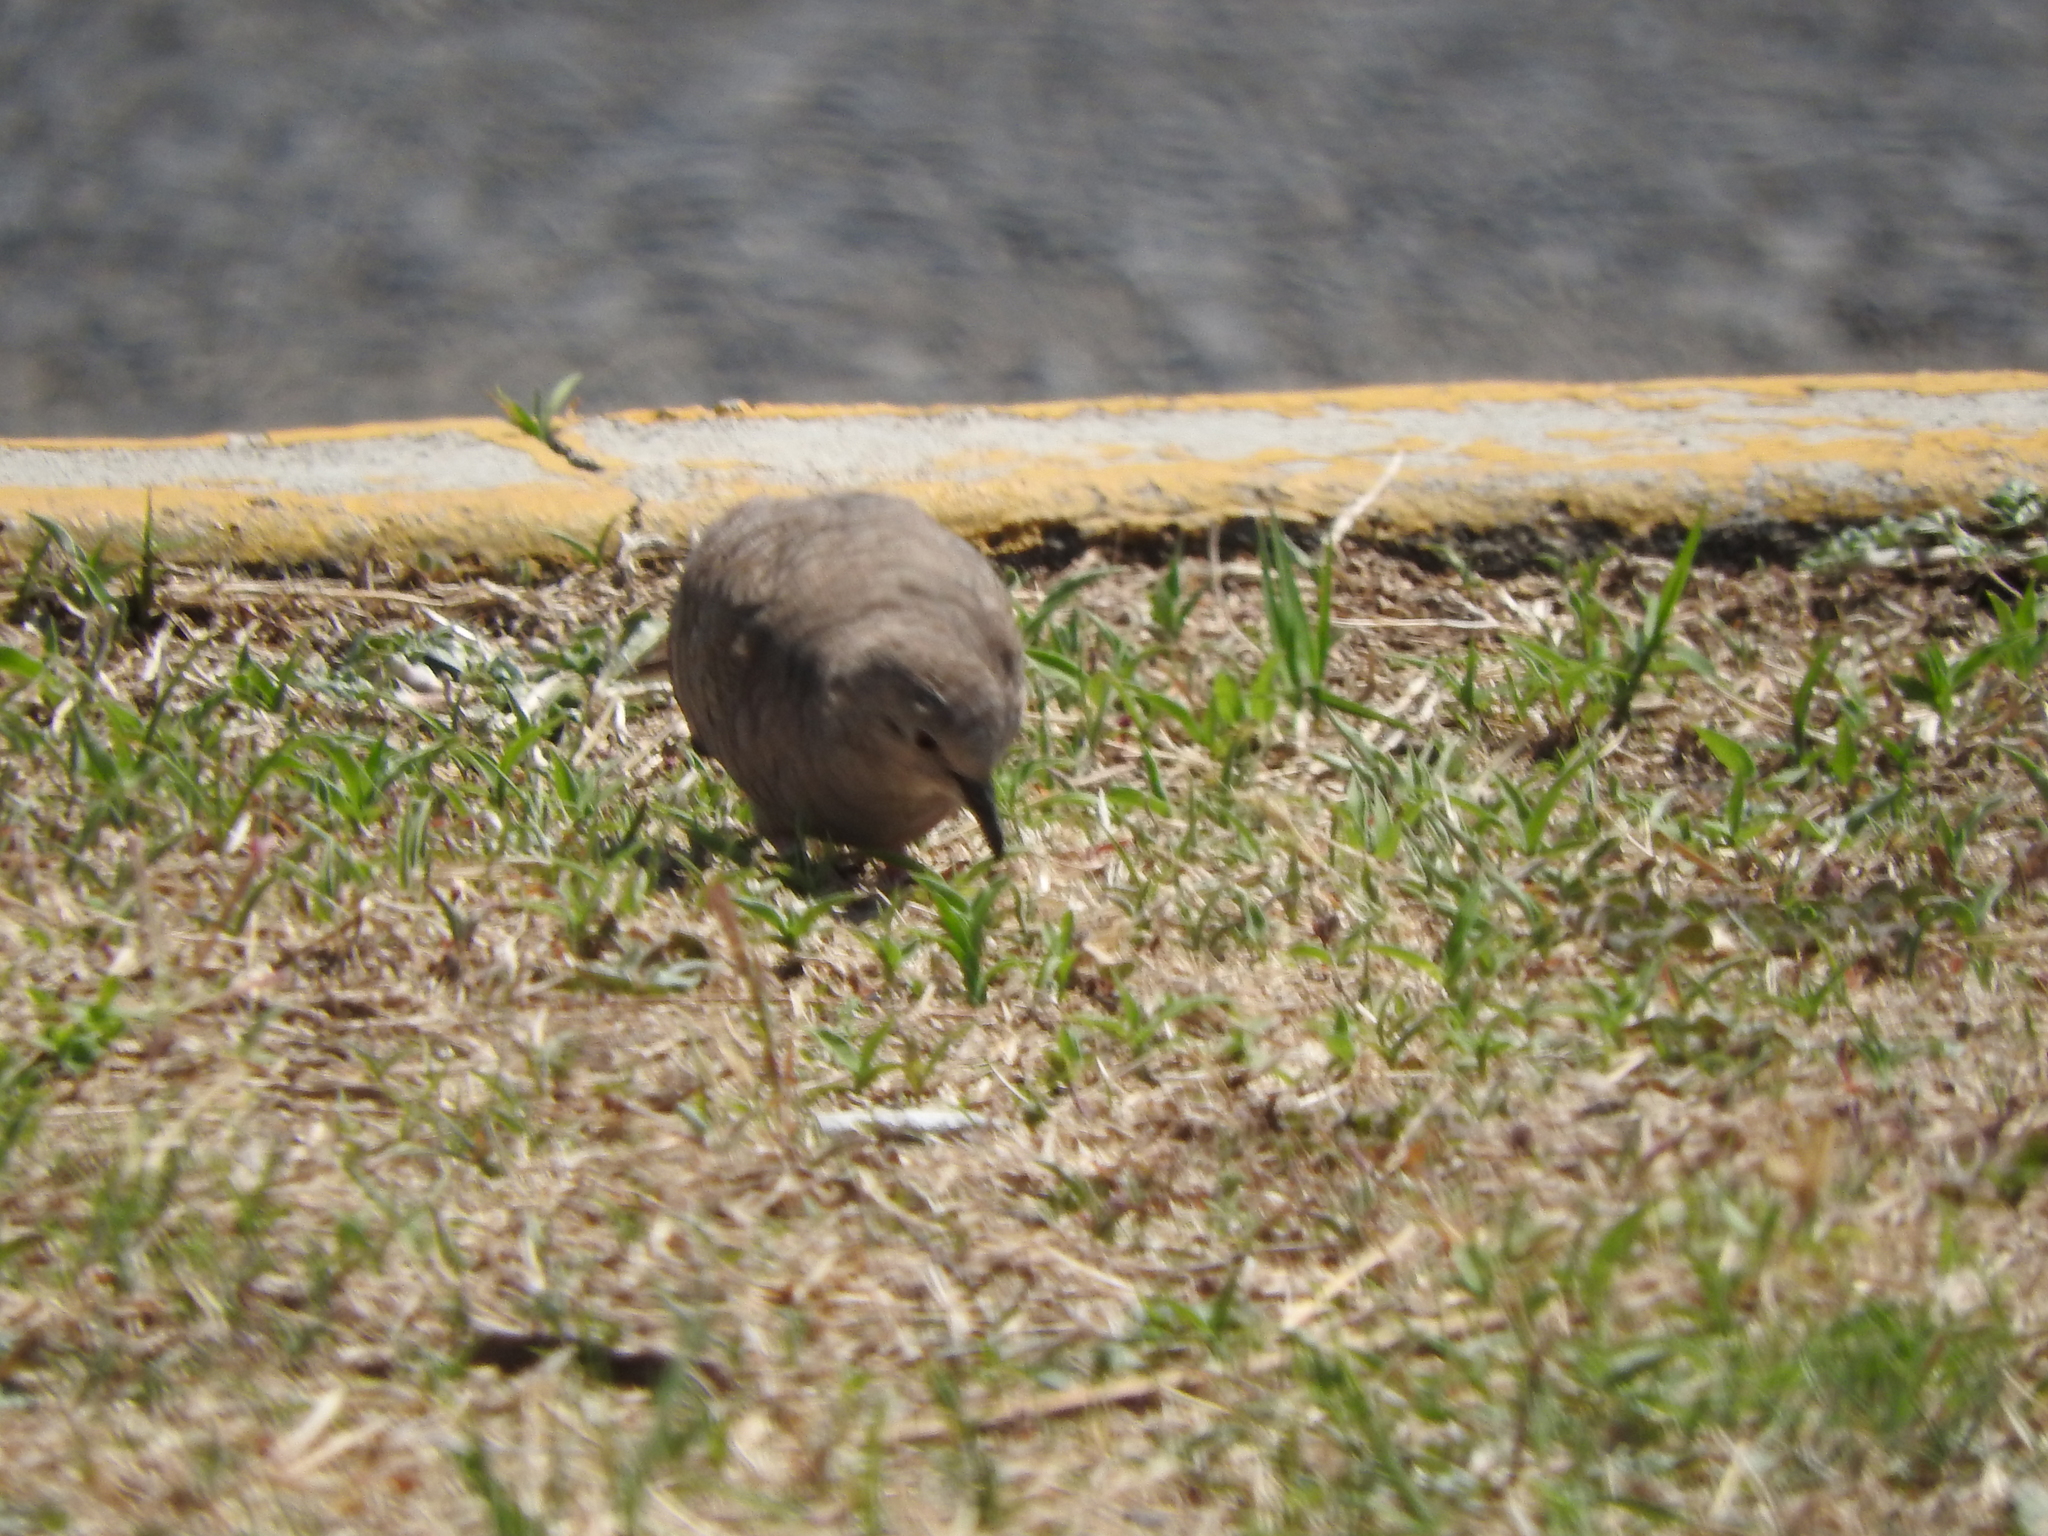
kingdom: Animalia
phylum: Chordata
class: Aves
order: Columbiformes
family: Columbidae
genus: Columbina
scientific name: Columbina inca
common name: Inca dove
